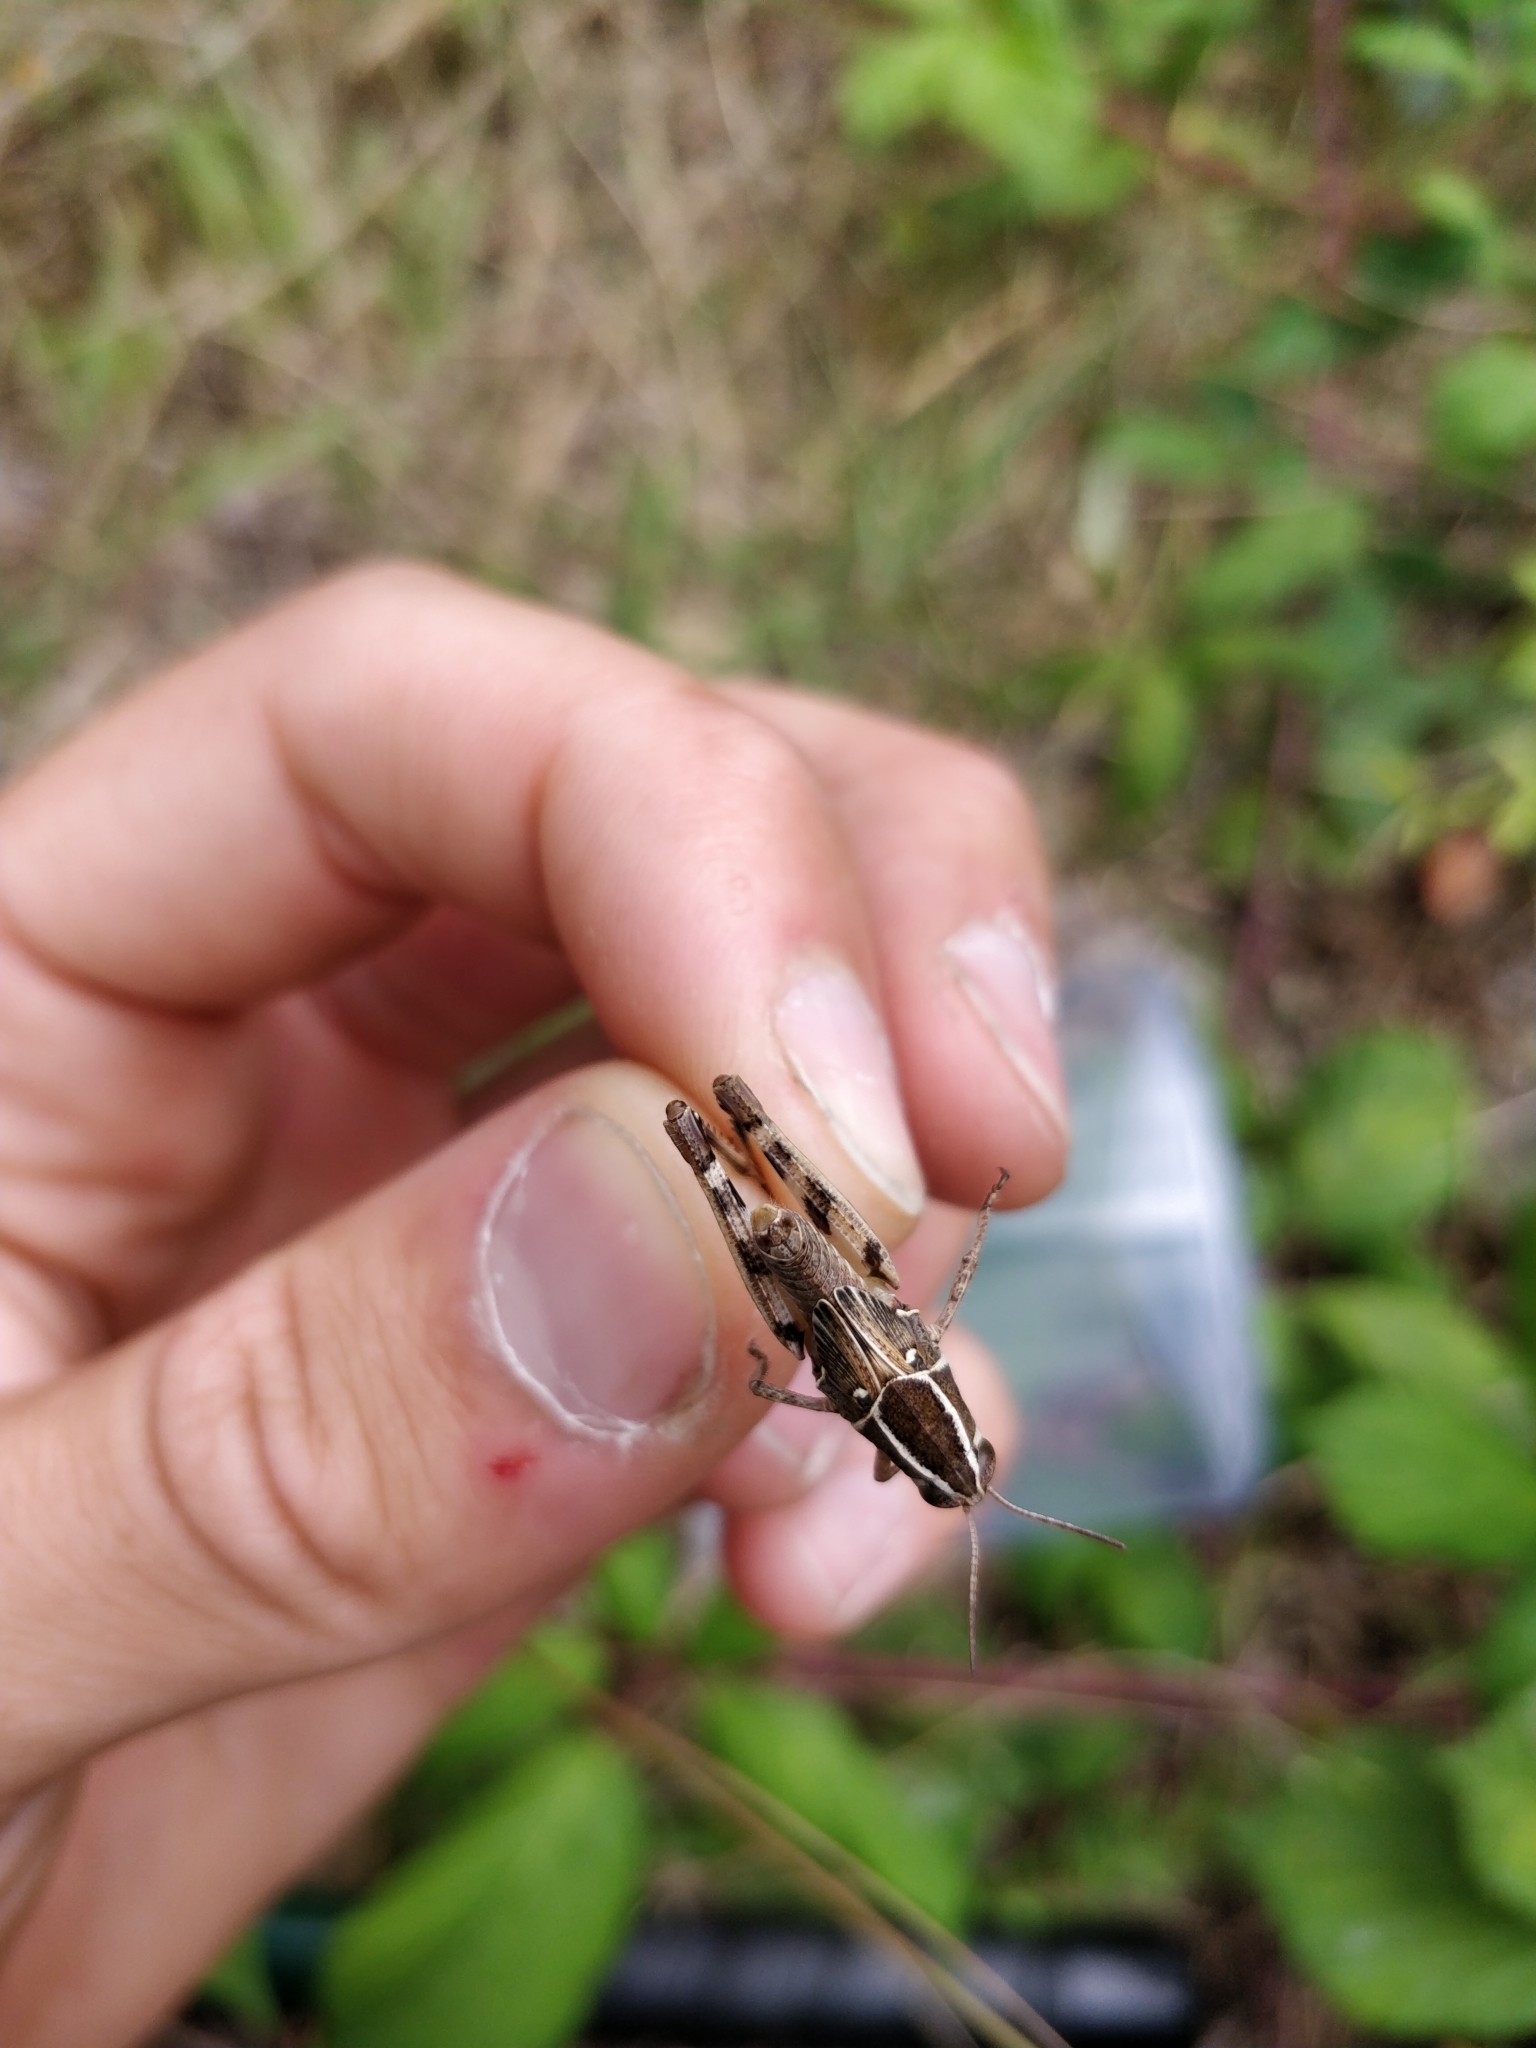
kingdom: Animalia
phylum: Arthropoda
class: Insecta
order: Orthoptera
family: Acrididae
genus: Calliptamus
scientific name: Calliptamus barbarus
